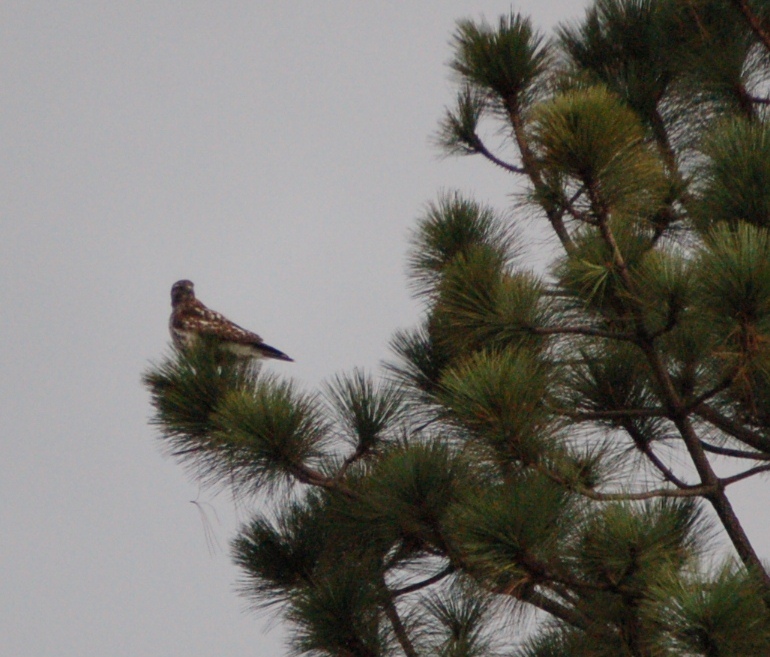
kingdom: Animalia
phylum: Chordata
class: Aves
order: Accipitriformes
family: Accipitridae
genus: Buteo
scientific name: Buteo platypterus
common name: Broad-winged hawk
